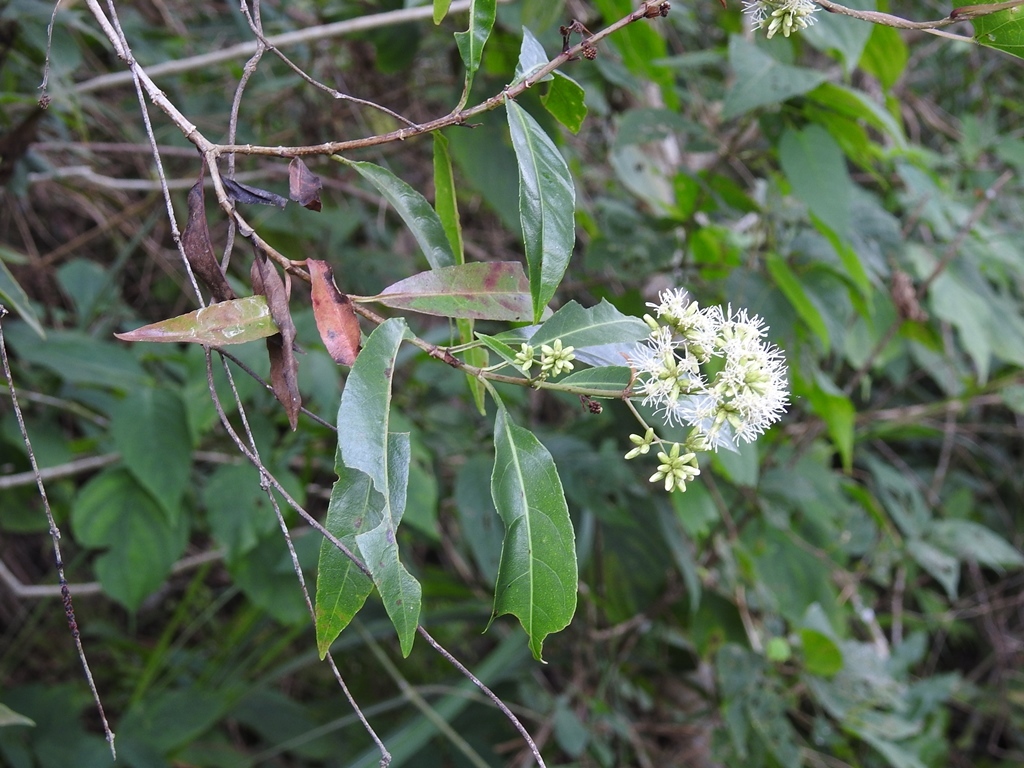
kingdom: Plantae
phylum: Tracheophyta
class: Magnoliopsida
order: Asterales
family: Asteraceae
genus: Critonia
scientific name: Critonia hospitalis
